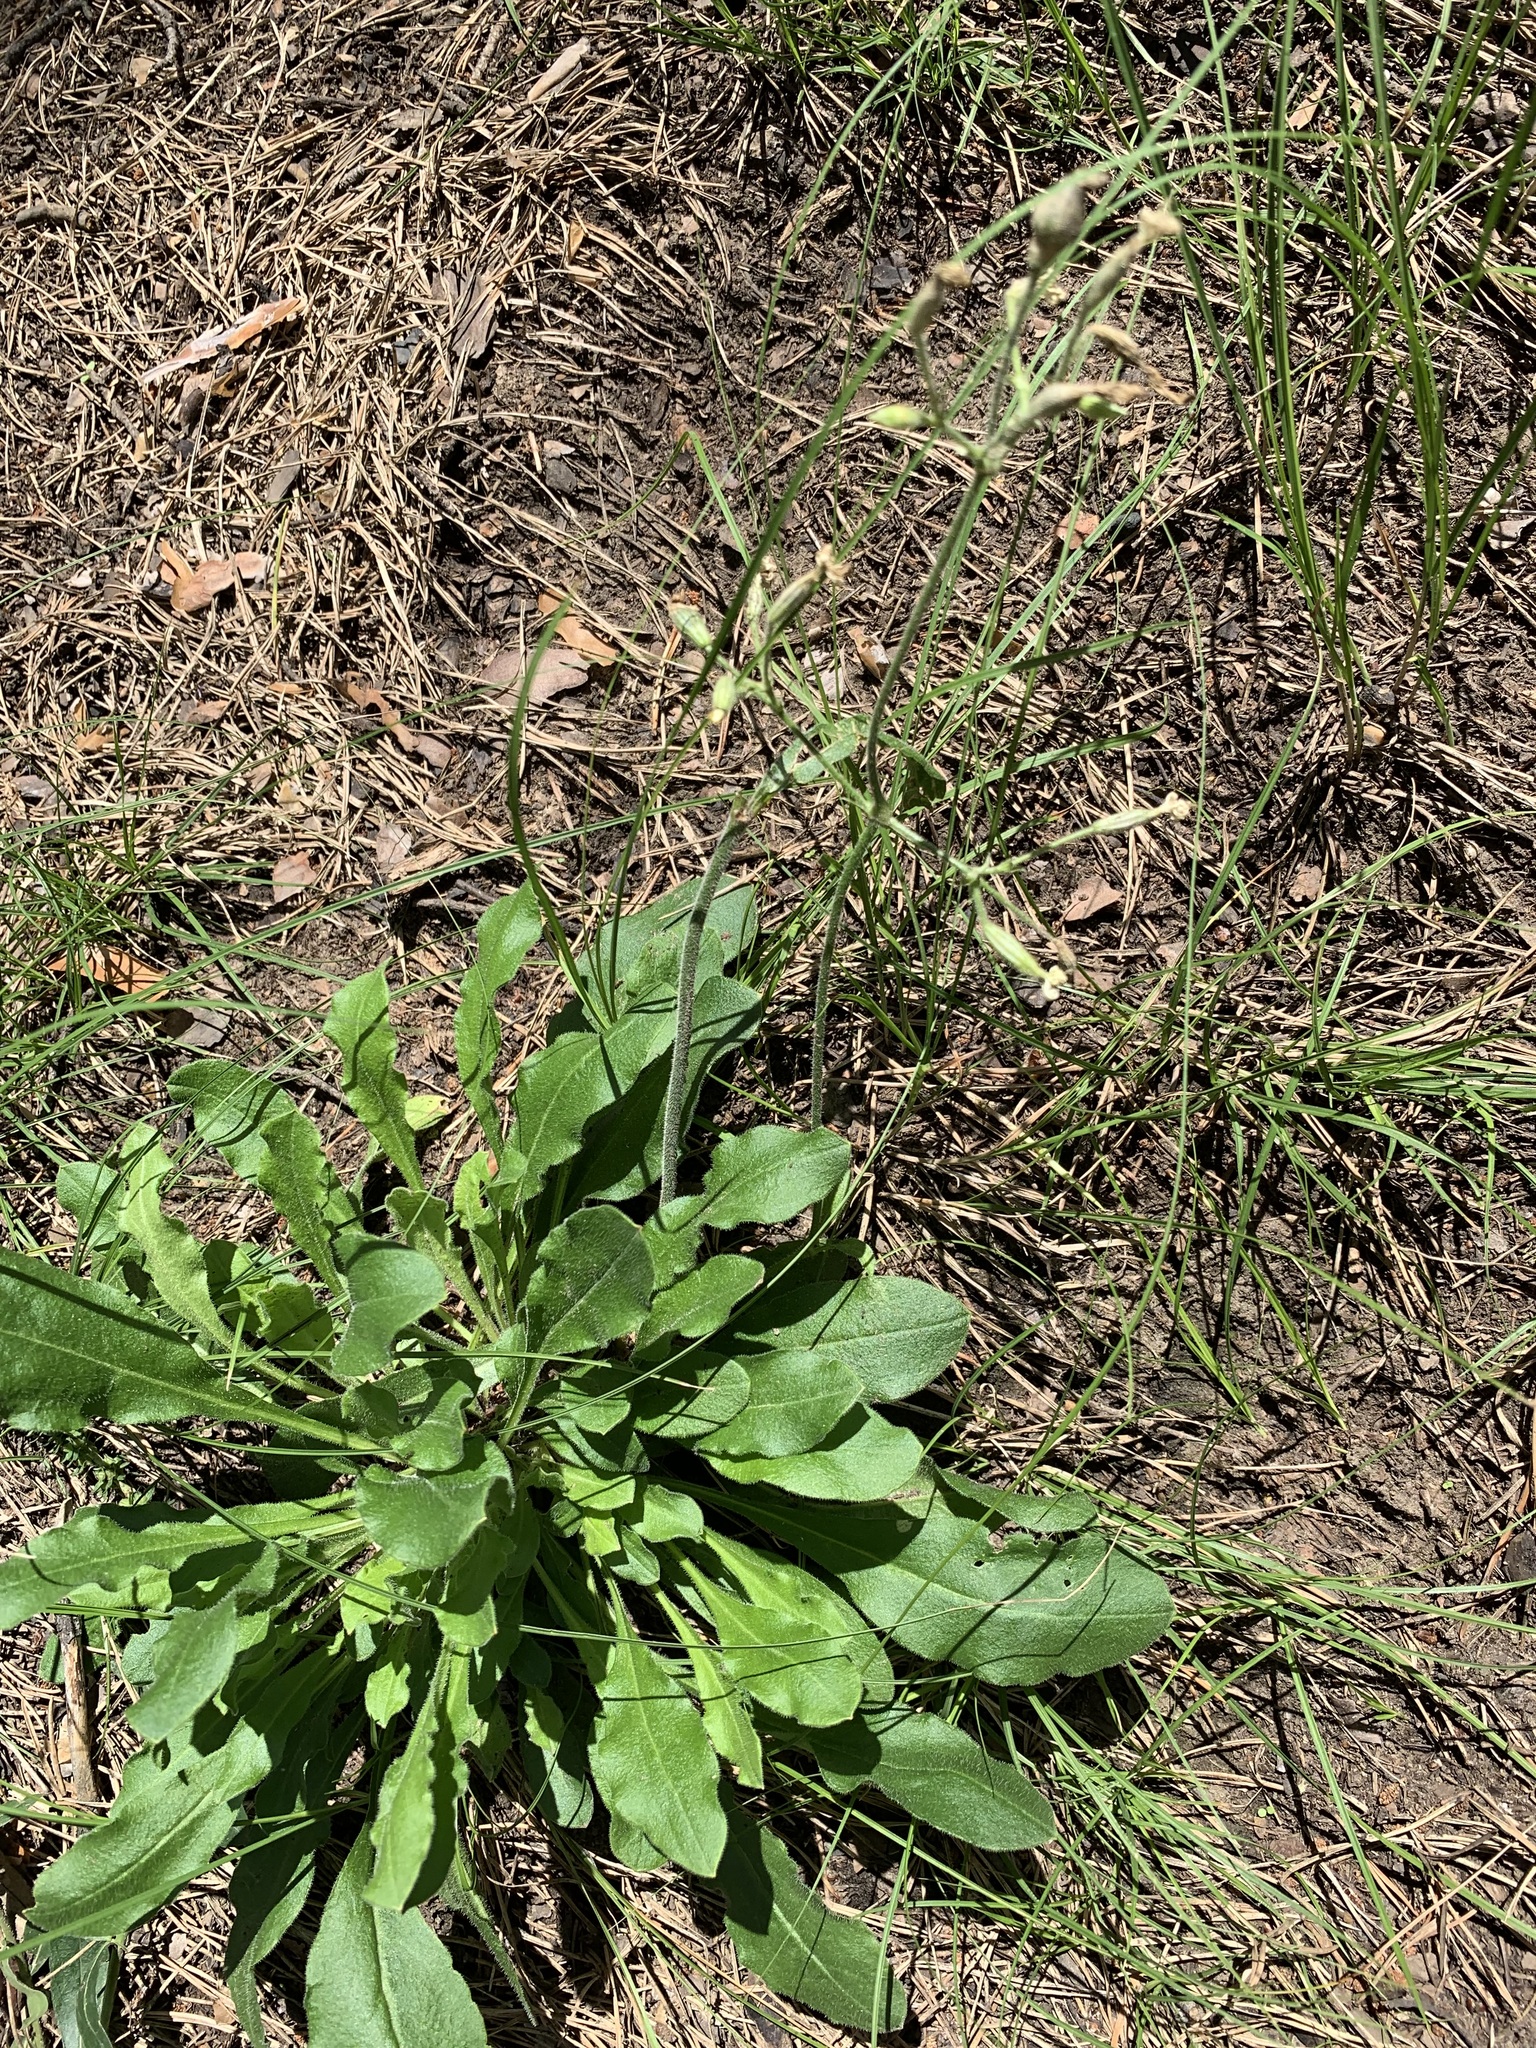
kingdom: Plantae
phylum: Tracheophyta
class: Magnoliopsida
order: Caryophyllales
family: Caryophyllaceae
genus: Silene
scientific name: Silene nutans
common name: Nottingham catchfly
